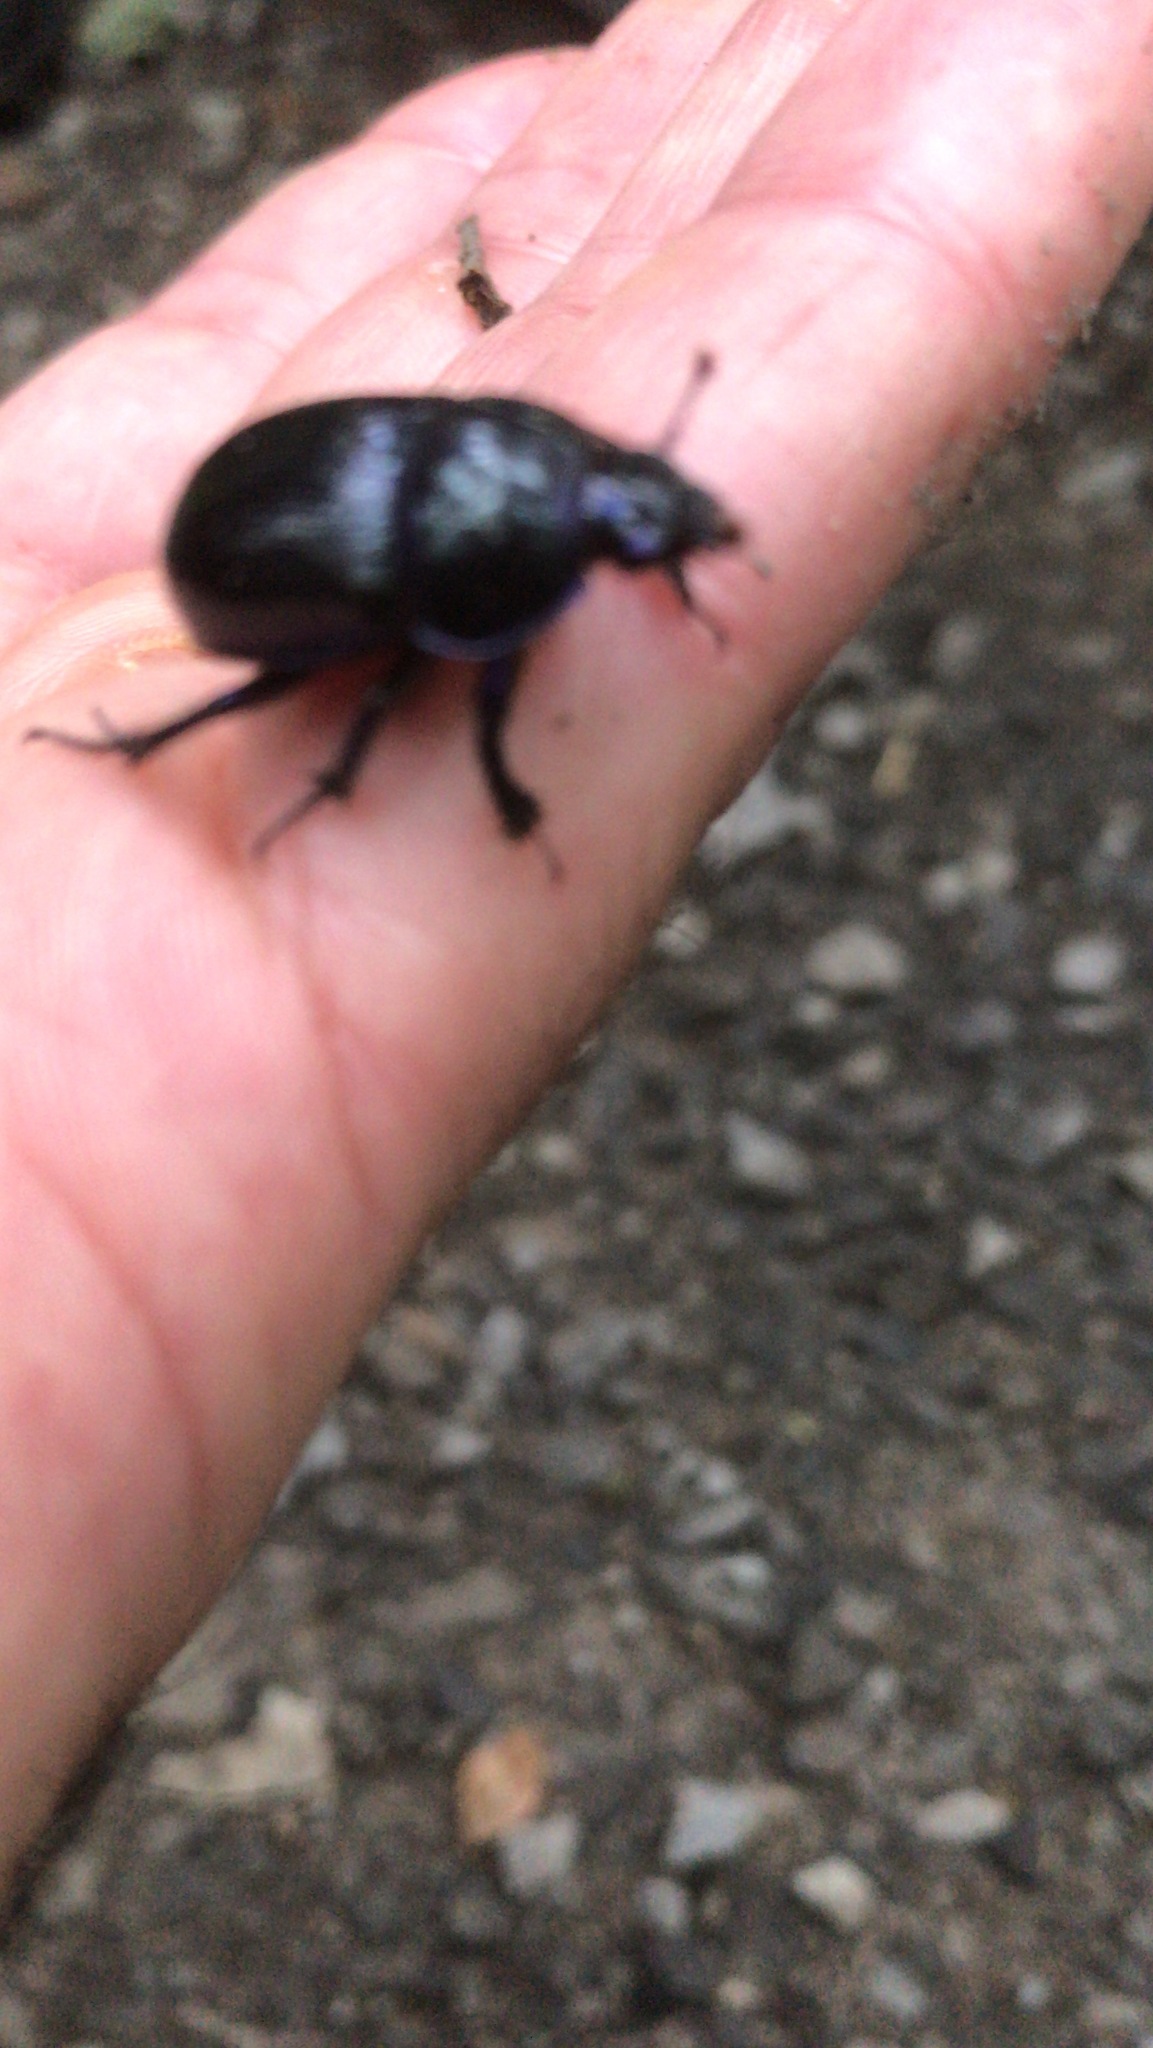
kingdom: Animalia
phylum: Arthropoda
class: Insecta
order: Coleoptera
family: Geotrupidae
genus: Anoplotrupes
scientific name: Anoplotrupes stercorosus
